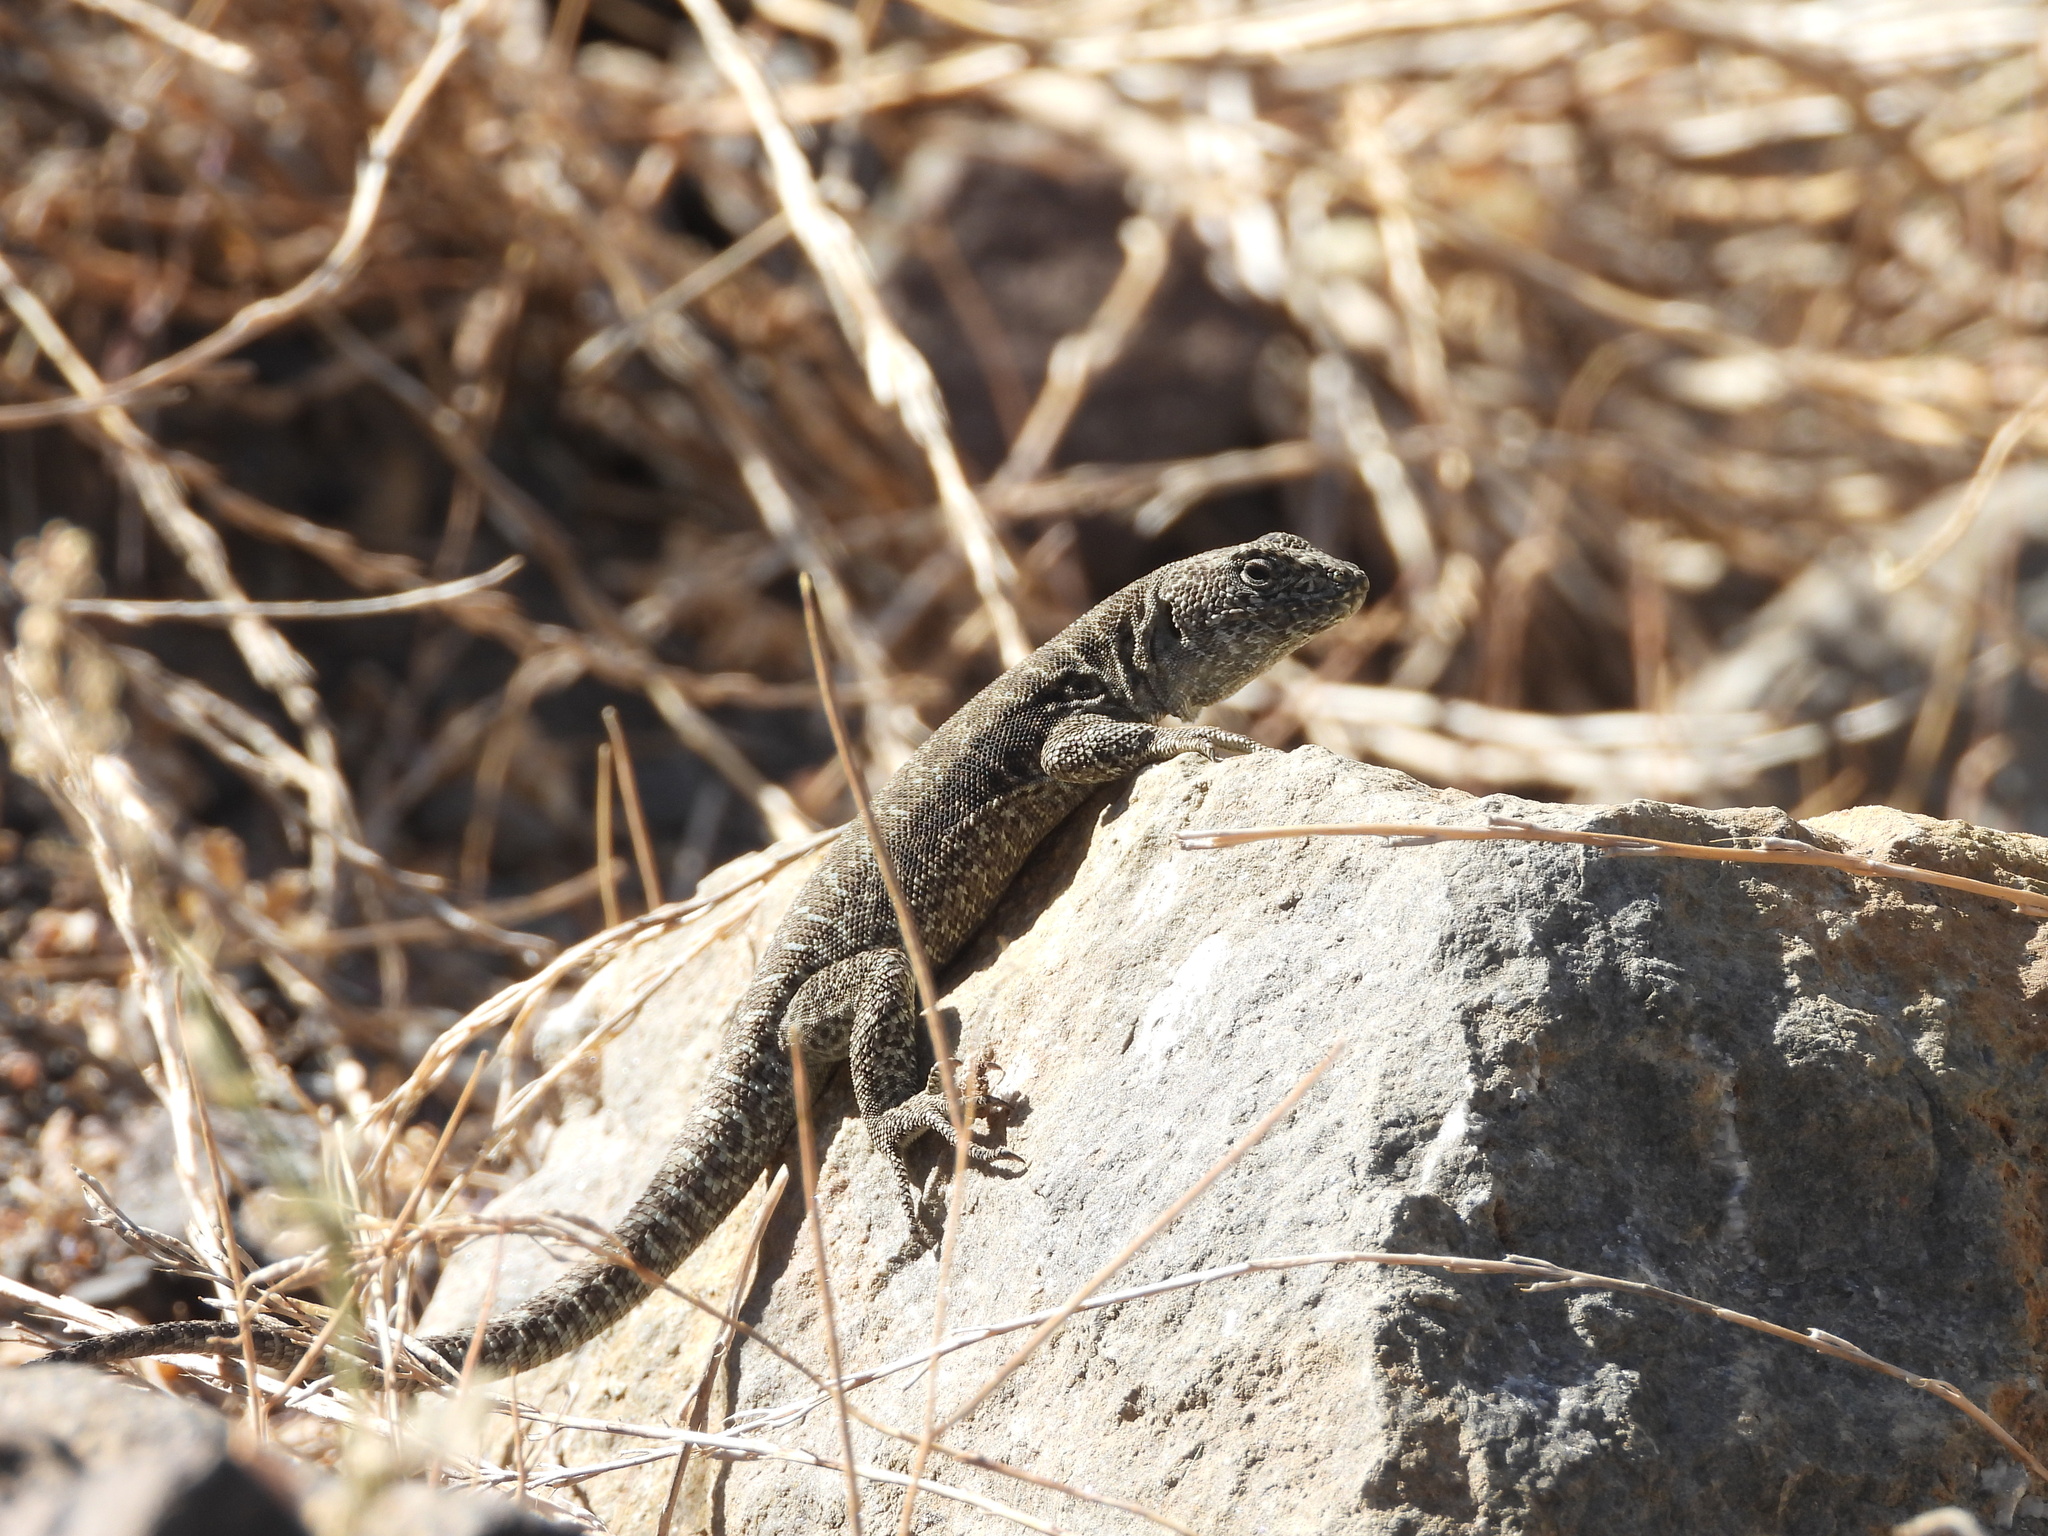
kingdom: Animalia
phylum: Chordata
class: Squamata
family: Liolaemidae
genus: Liolaemus
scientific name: Liolaemus valdesianus
